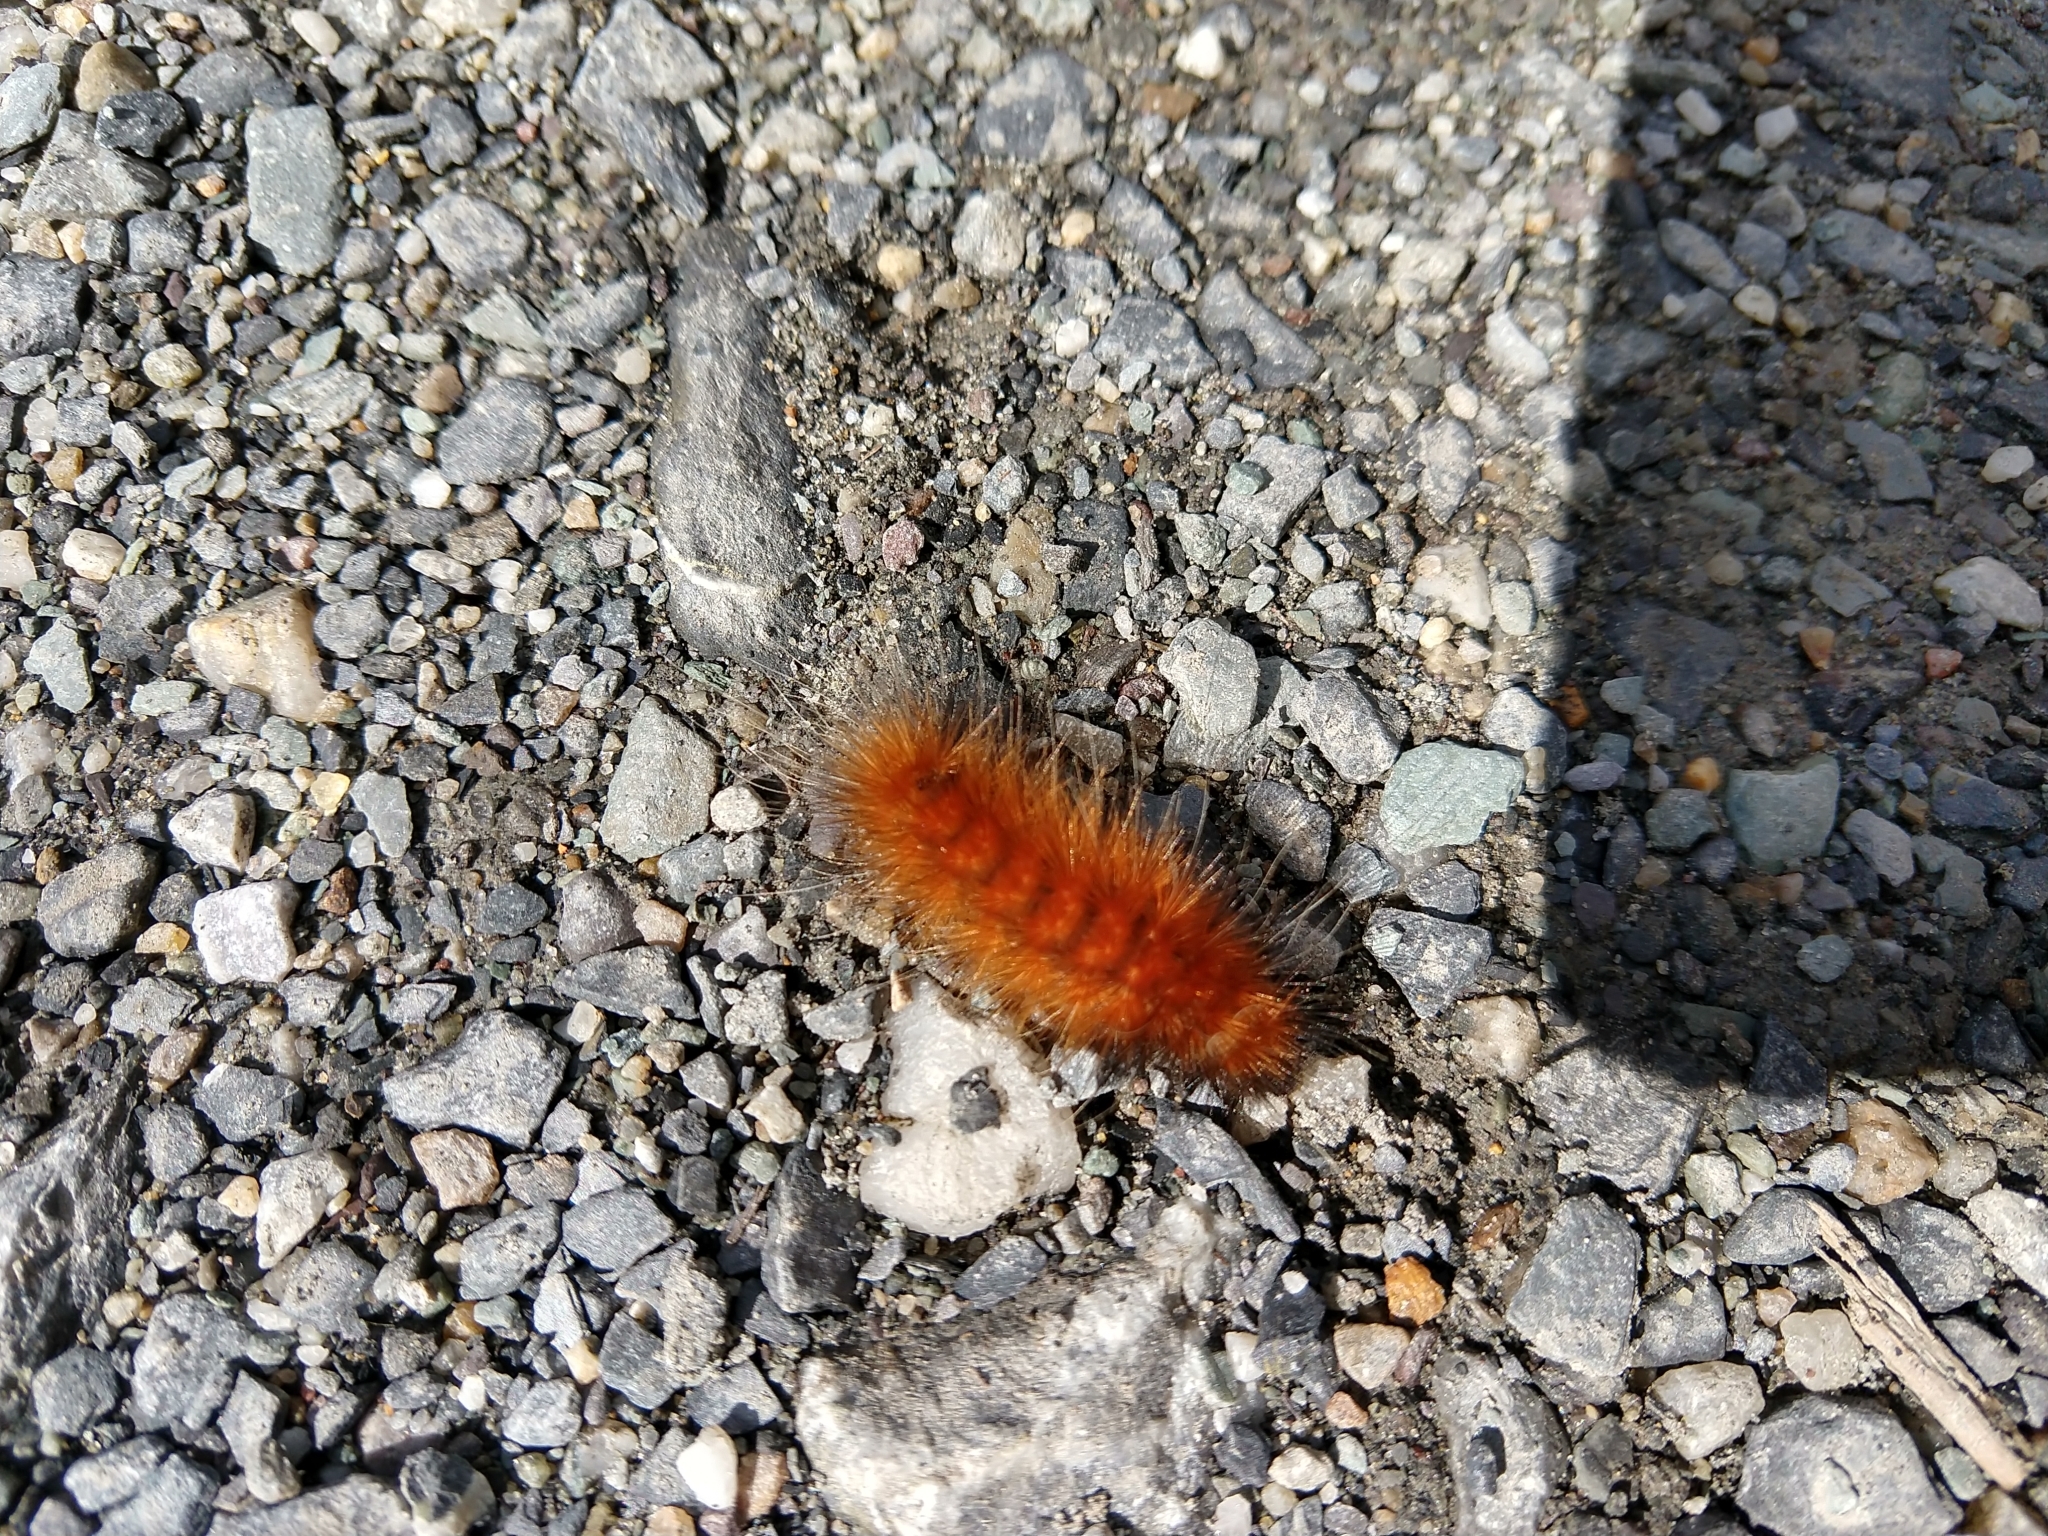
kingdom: Animalia
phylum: Arthropoda
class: Insecta
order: Lepidoptera
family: Erebidae
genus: Spilosoma
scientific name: Spilosoma virginica
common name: Virginia tiger moth
